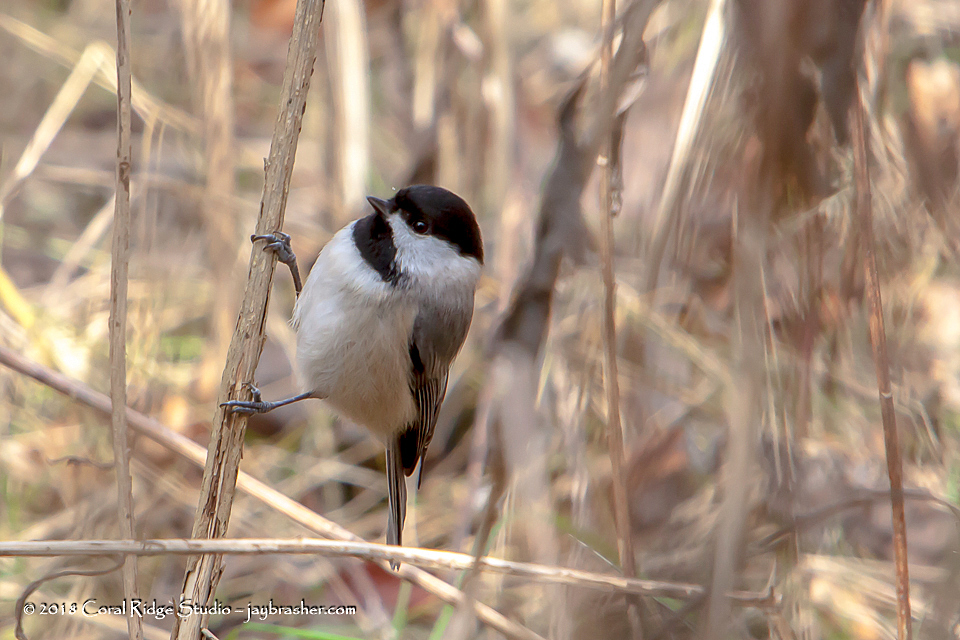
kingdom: Animalia
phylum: Chordata
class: Aves
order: Passeriformes
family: Paridae
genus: Poecile
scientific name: Poecile carolinensis
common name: Carolina chickadee
